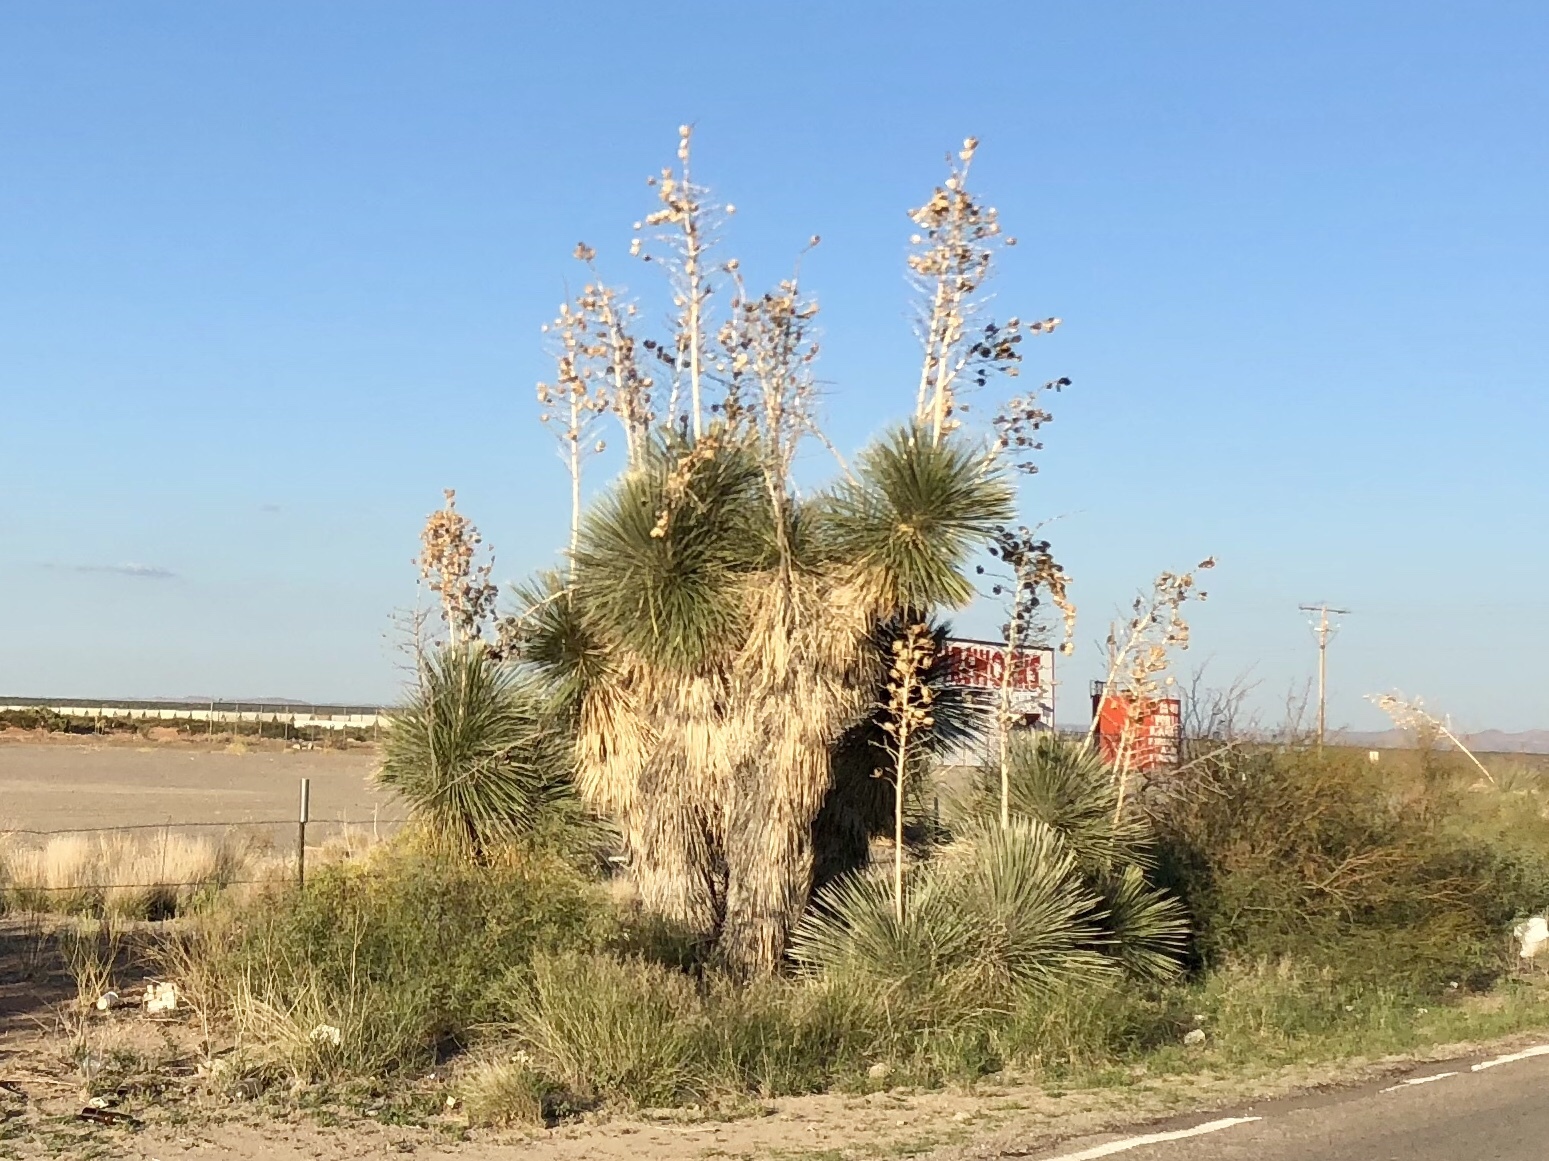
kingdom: Plantae
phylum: Tracheophyta
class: Liliopsida
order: Asparagales
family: Asparagaceae
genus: Yucca
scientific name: Yucca elata
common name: Palmella
